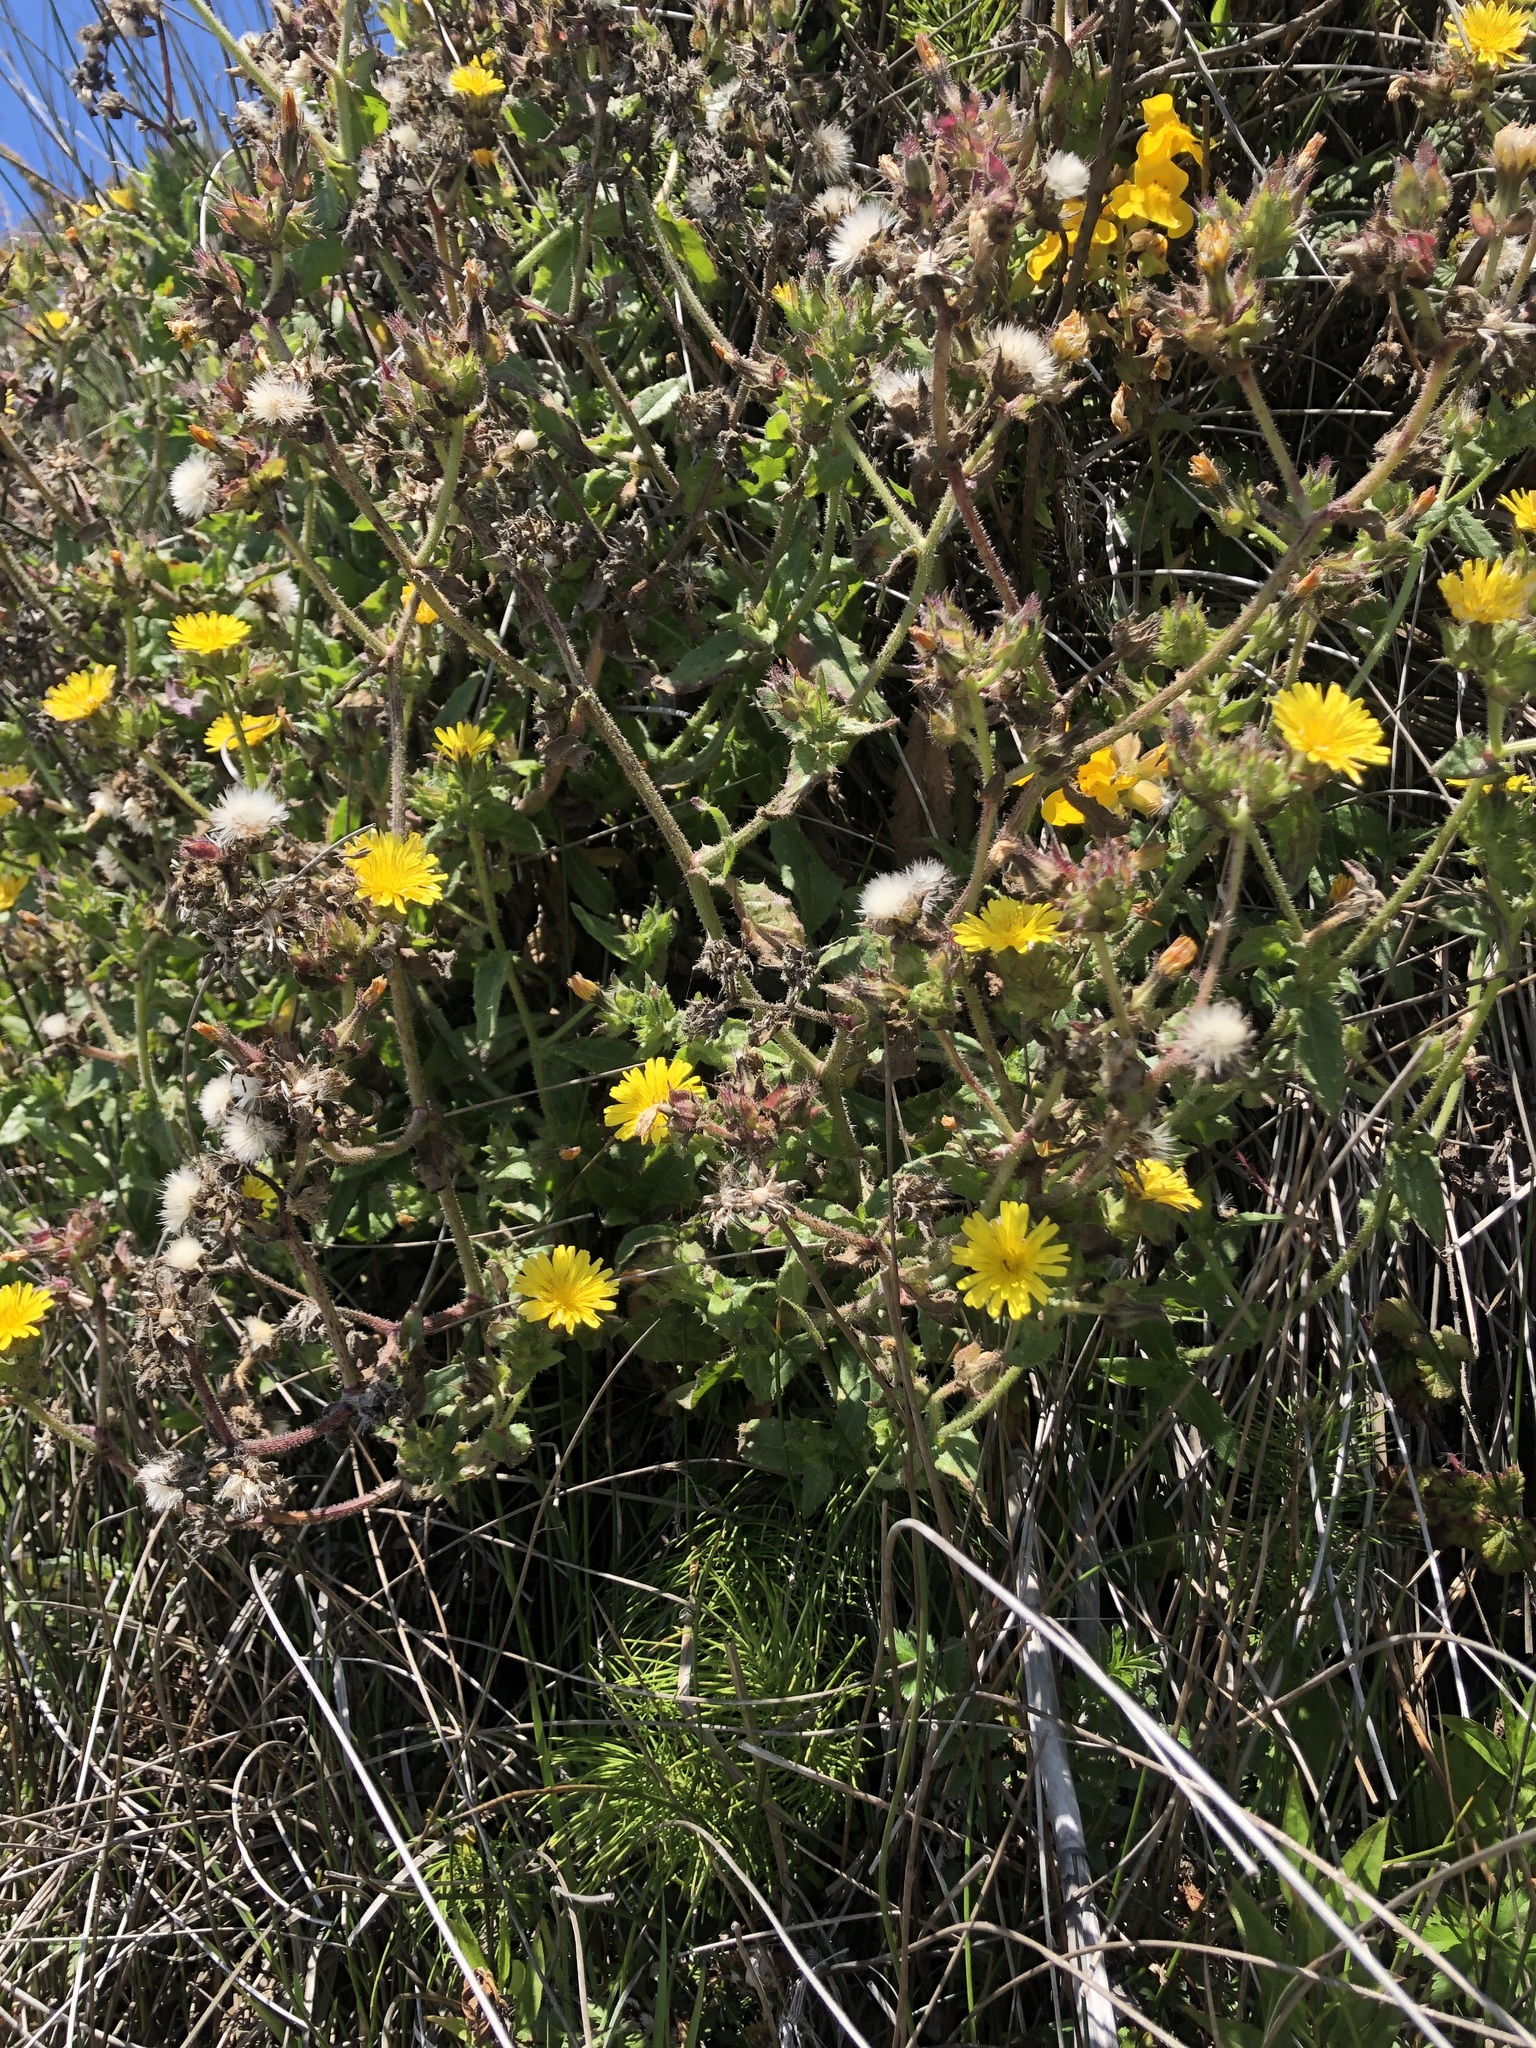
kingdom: Plantae
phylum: Tracheophyta
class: Magnoliopsida
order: Asterales
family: Asteraceae
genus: Helminthotheca
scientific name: Helminthotheca echioides
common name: Ox-tongue
